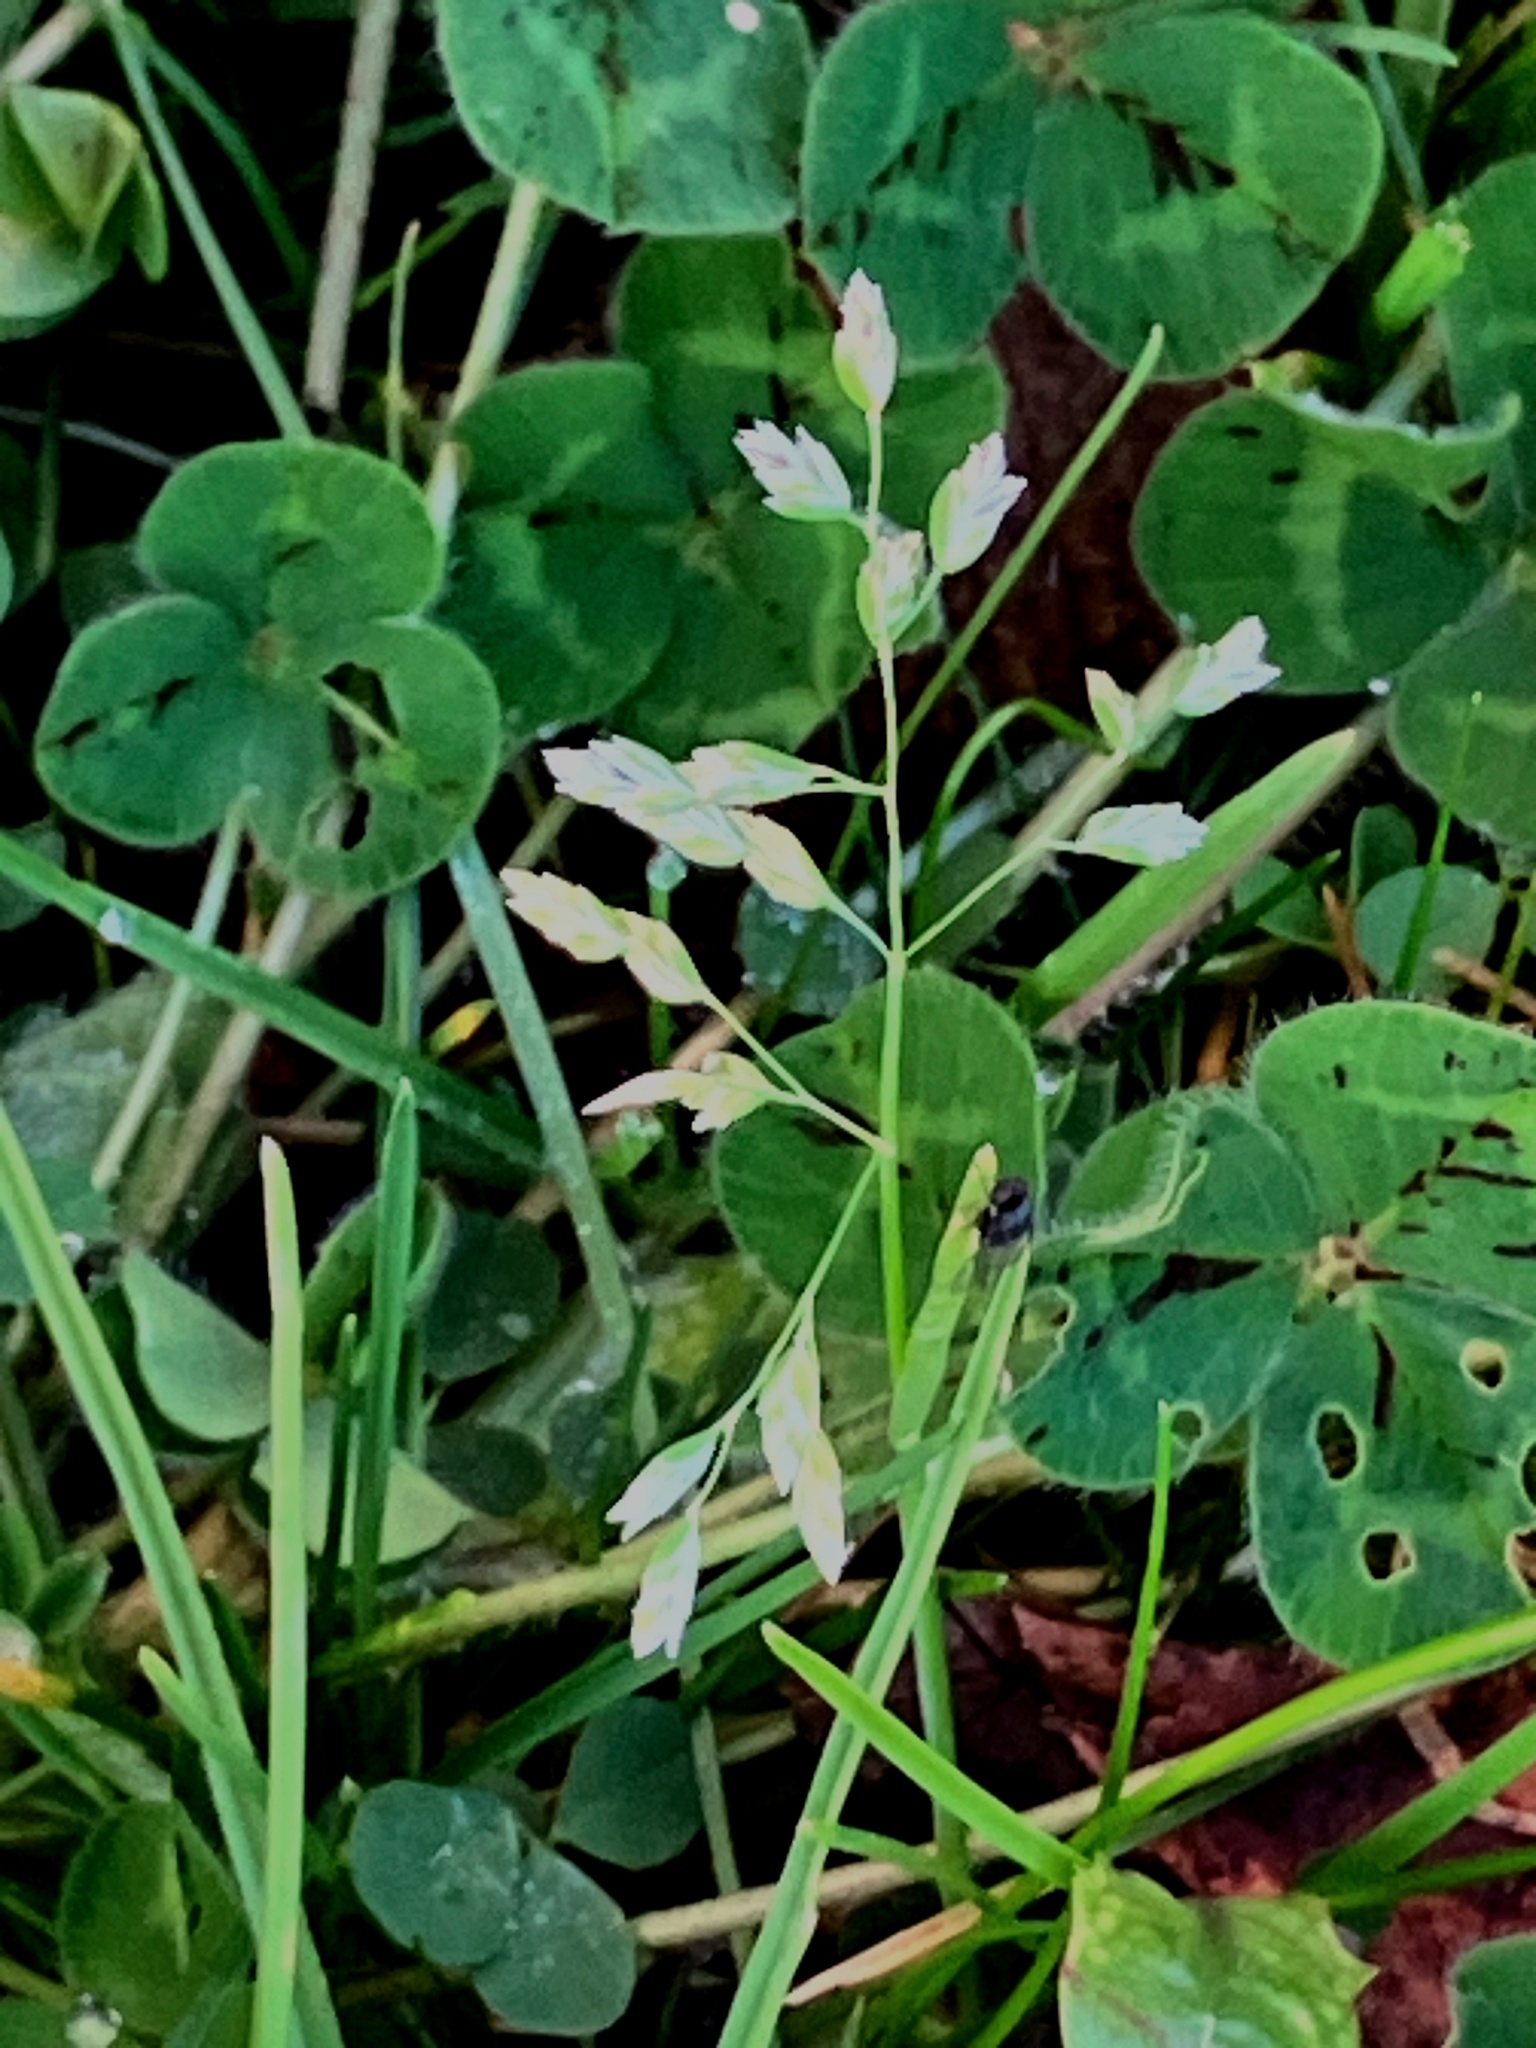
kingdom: Plantae
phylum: Tracheophyta
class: Liliopsida
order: Poales
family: Poaceae
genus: Poa
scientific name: Poa annua
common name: Annual bluegrass
